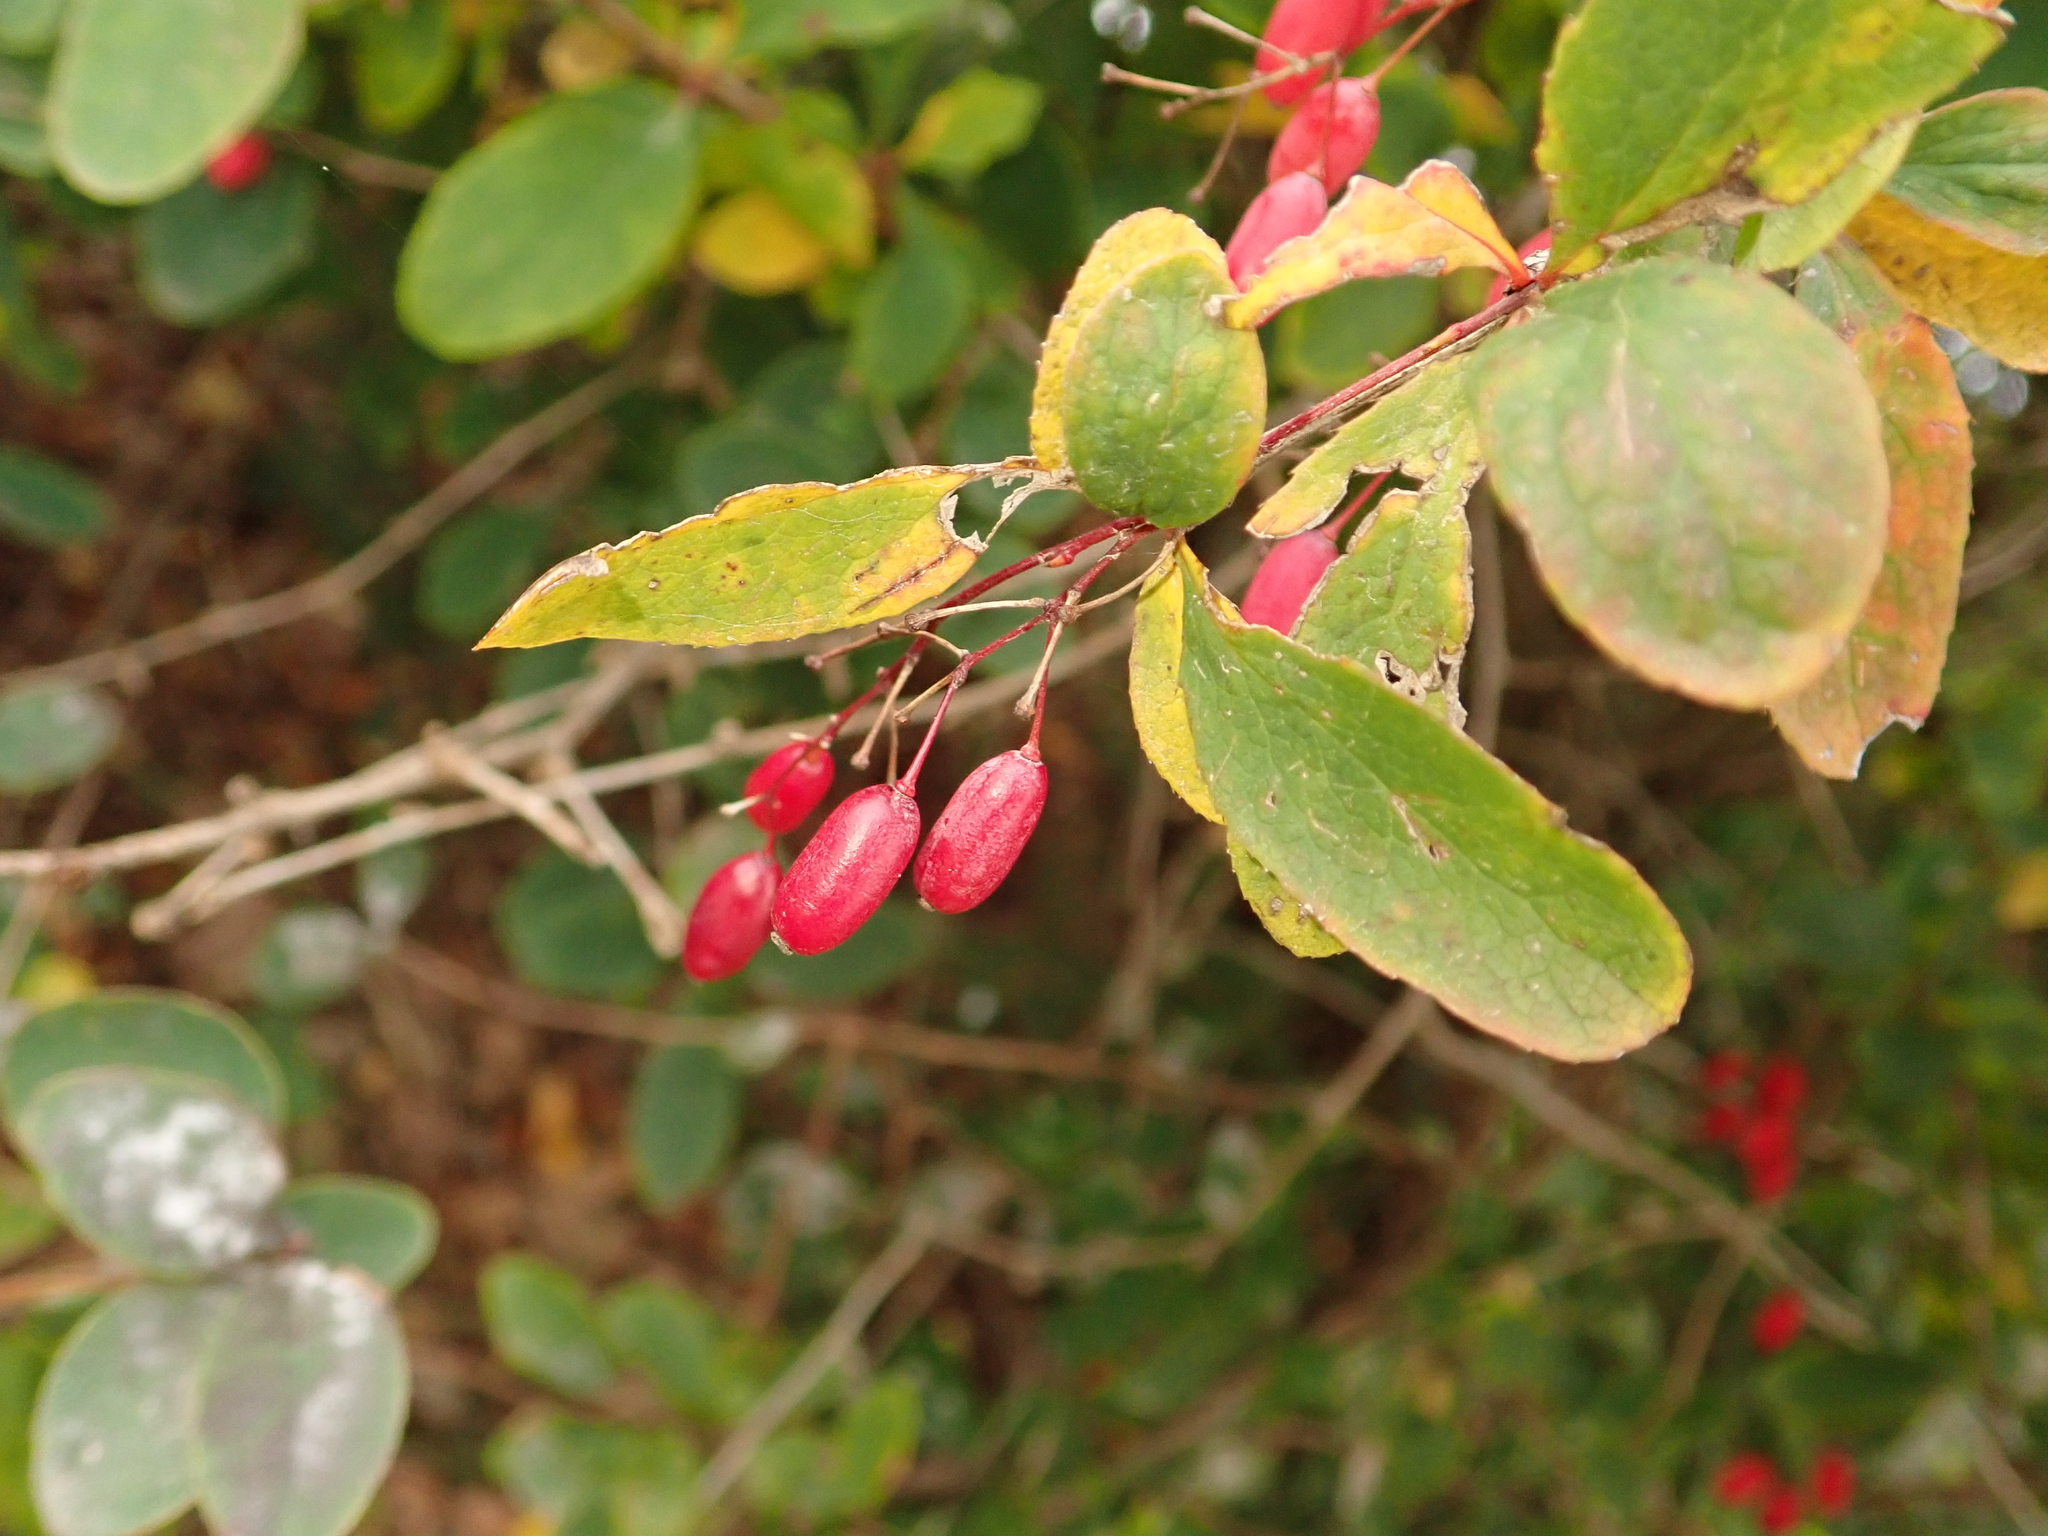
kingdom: Plantae
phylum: Tracheophyta
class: Magnoliopsida
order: Ranunculales
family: Berberidaceae
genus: Berberis
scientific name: Berberis vulgaris
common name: Barberry
